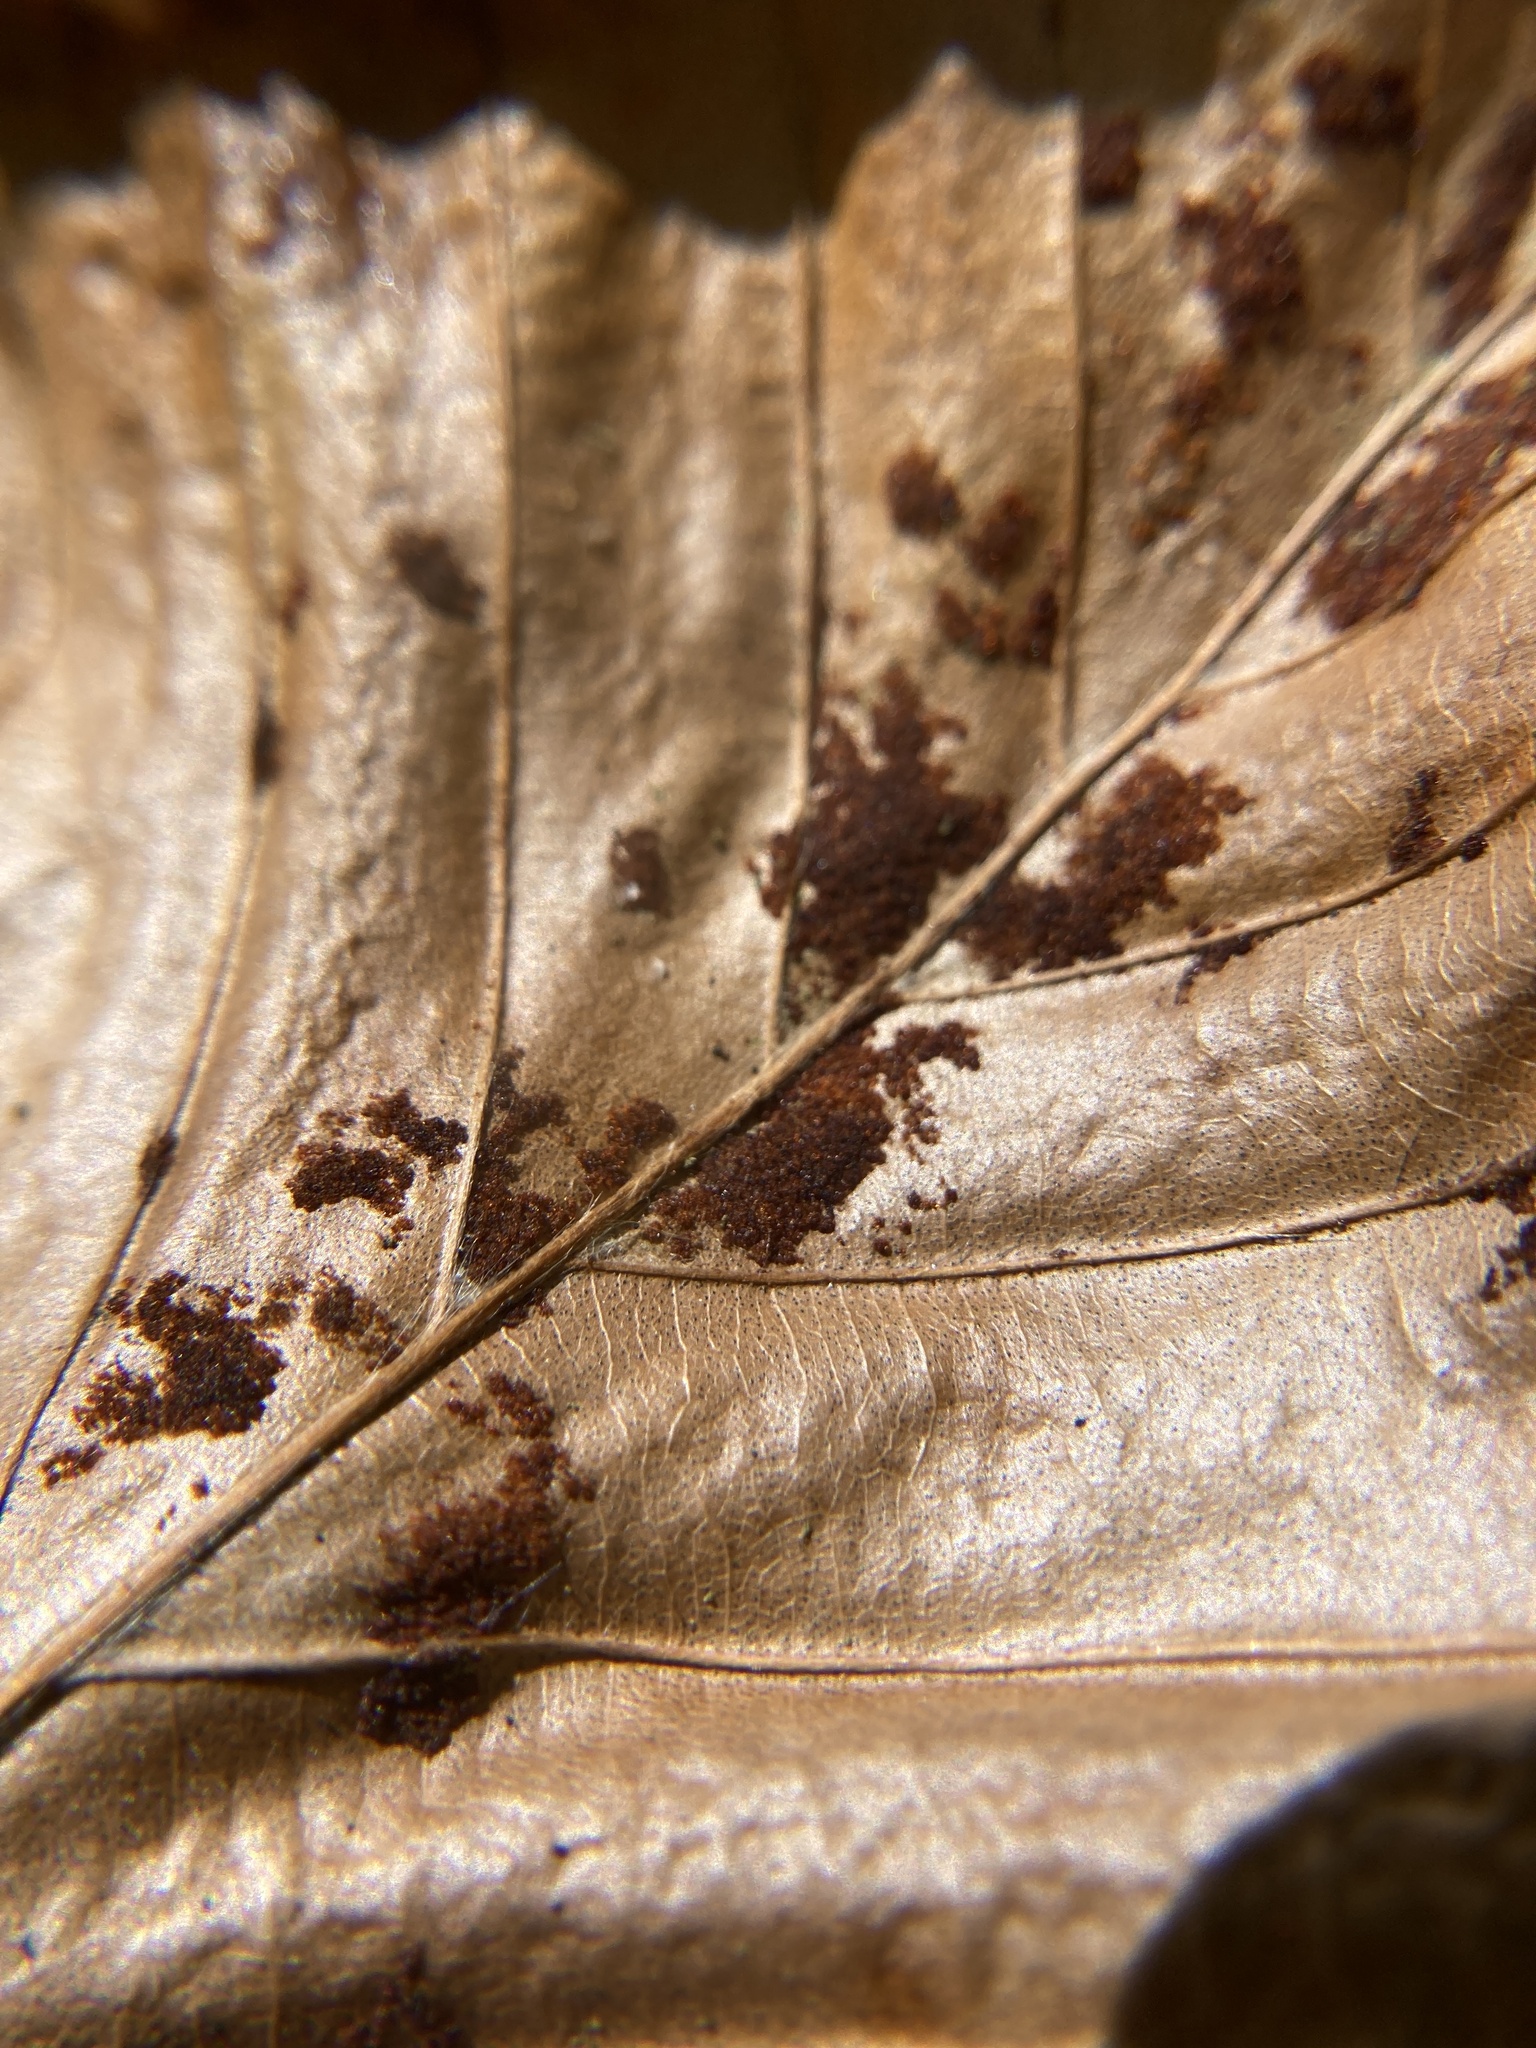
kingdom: Animalia
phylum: Arthropoda
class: Arachnida
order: Trombidiformes
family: Eriophyidae
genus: Acalitus
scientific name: Acalitus
